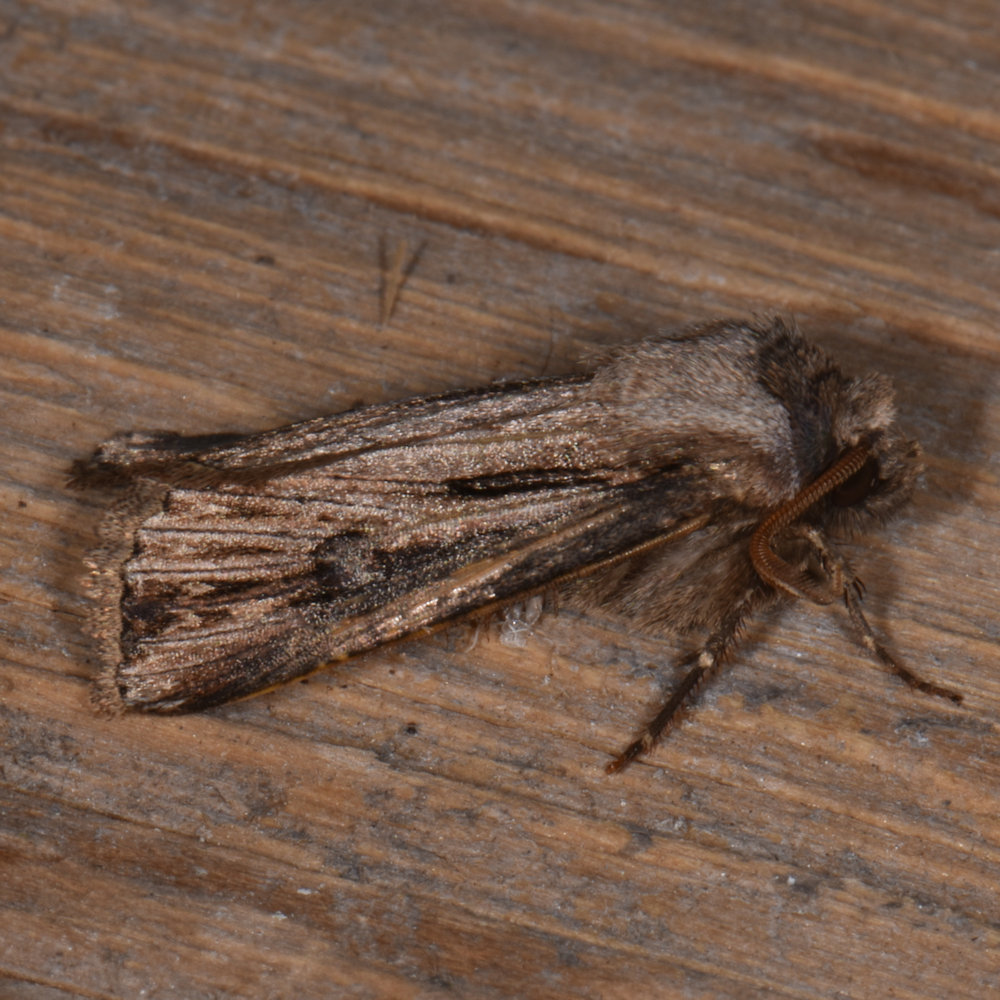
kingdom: Animalia
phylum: Arthropoda
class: Insecta
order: Lepidoptera
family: Noctuidae
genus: Agrotis
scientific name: Agrotis venerabilis
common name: Venerable dart
